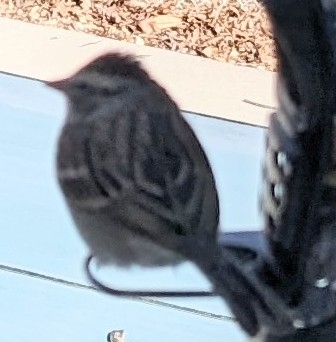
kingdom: Animalia
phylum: Chordata
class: Aves
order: Passeriformes
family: Passerellidae
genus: Spizella
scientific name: Spizella passerina
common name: Chipping sparrow
